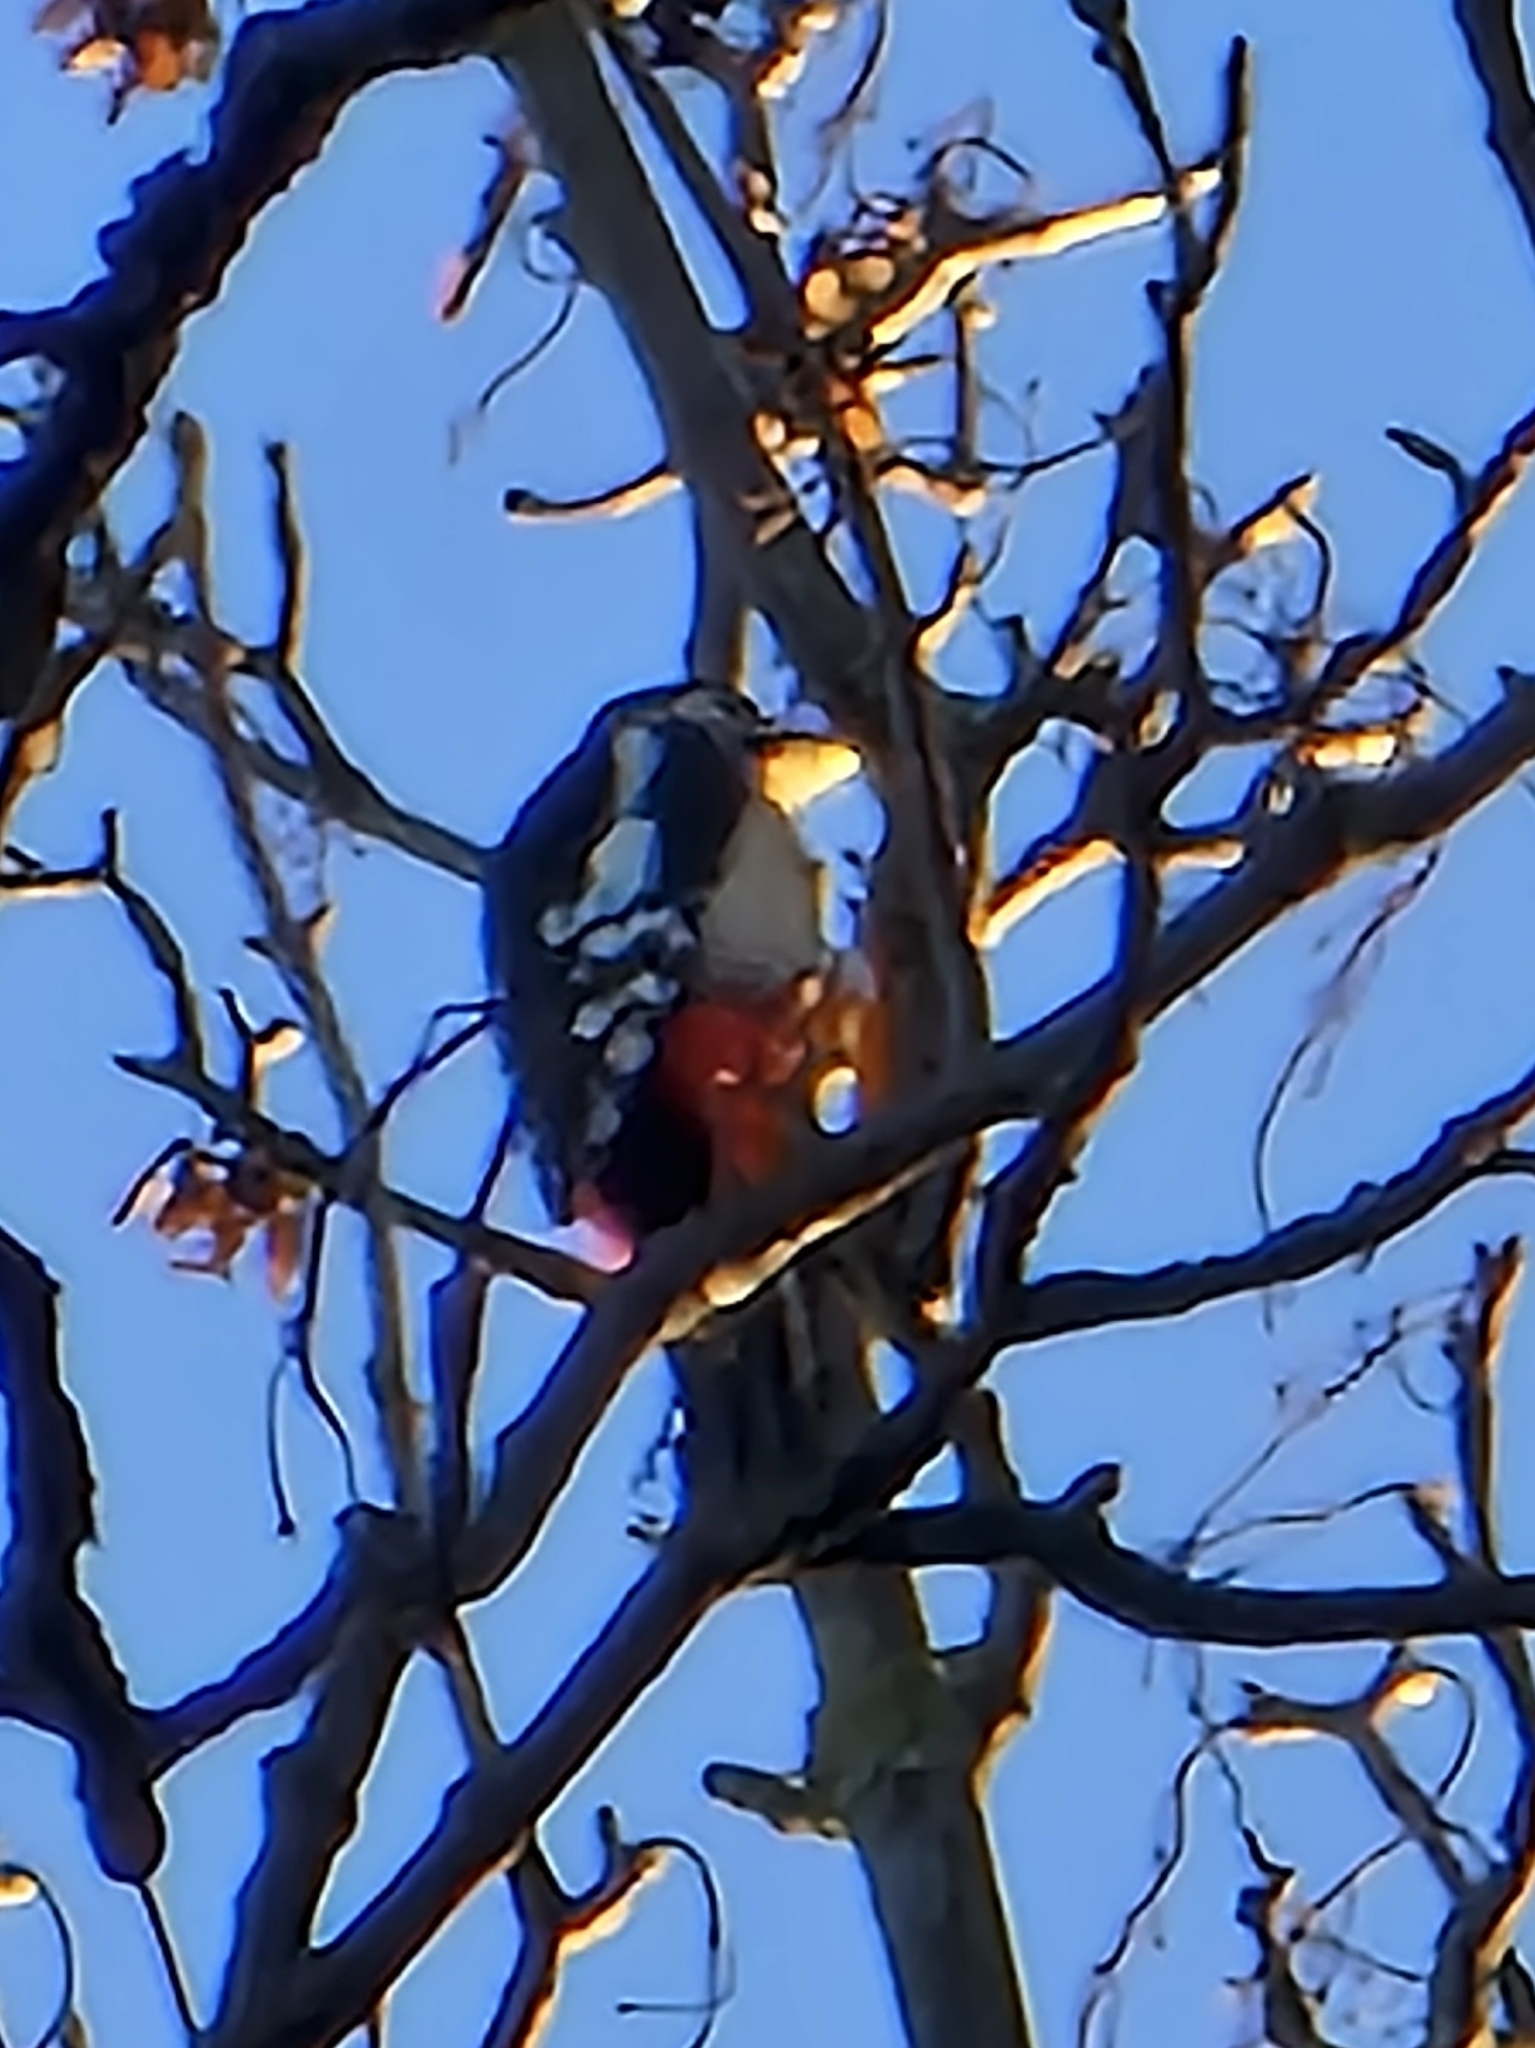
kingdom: Animalia
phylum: Chordata
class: Aves
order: Piciformes
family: Picidae
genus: Dendrocopos
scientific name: Dendrocopos major
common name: Great spotted woodpecker
